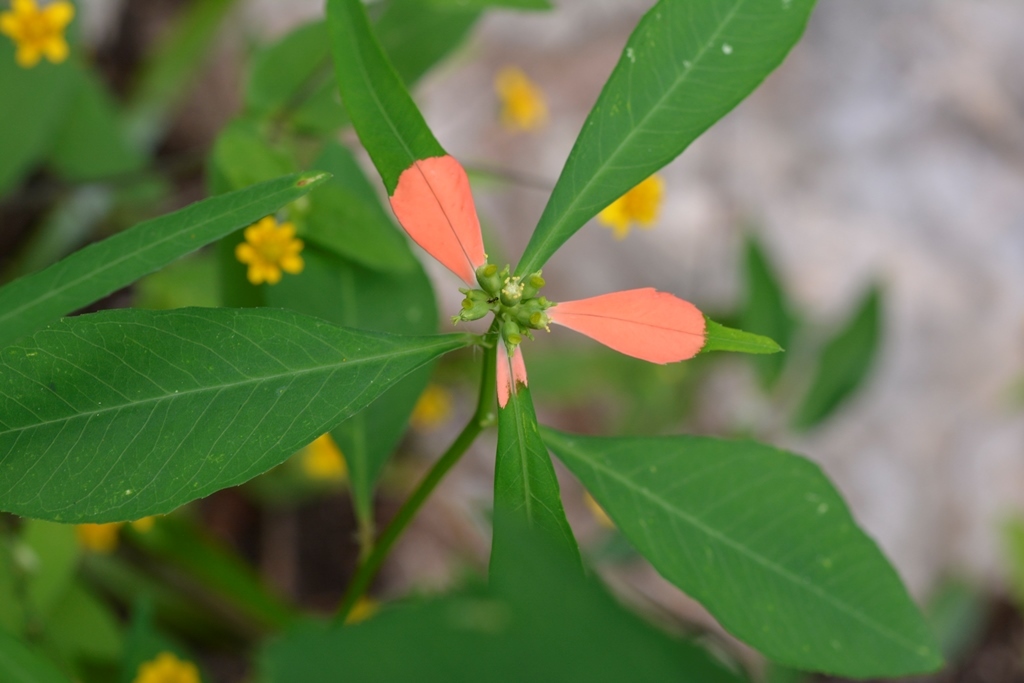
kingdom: Plantae
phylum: Tracheophyta
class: Magnoliopsida
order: Malpighiales
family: Euphorbiaceae
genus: Euphorbia
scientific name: Euphorbia heterophylla
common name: Mexican fireplant
